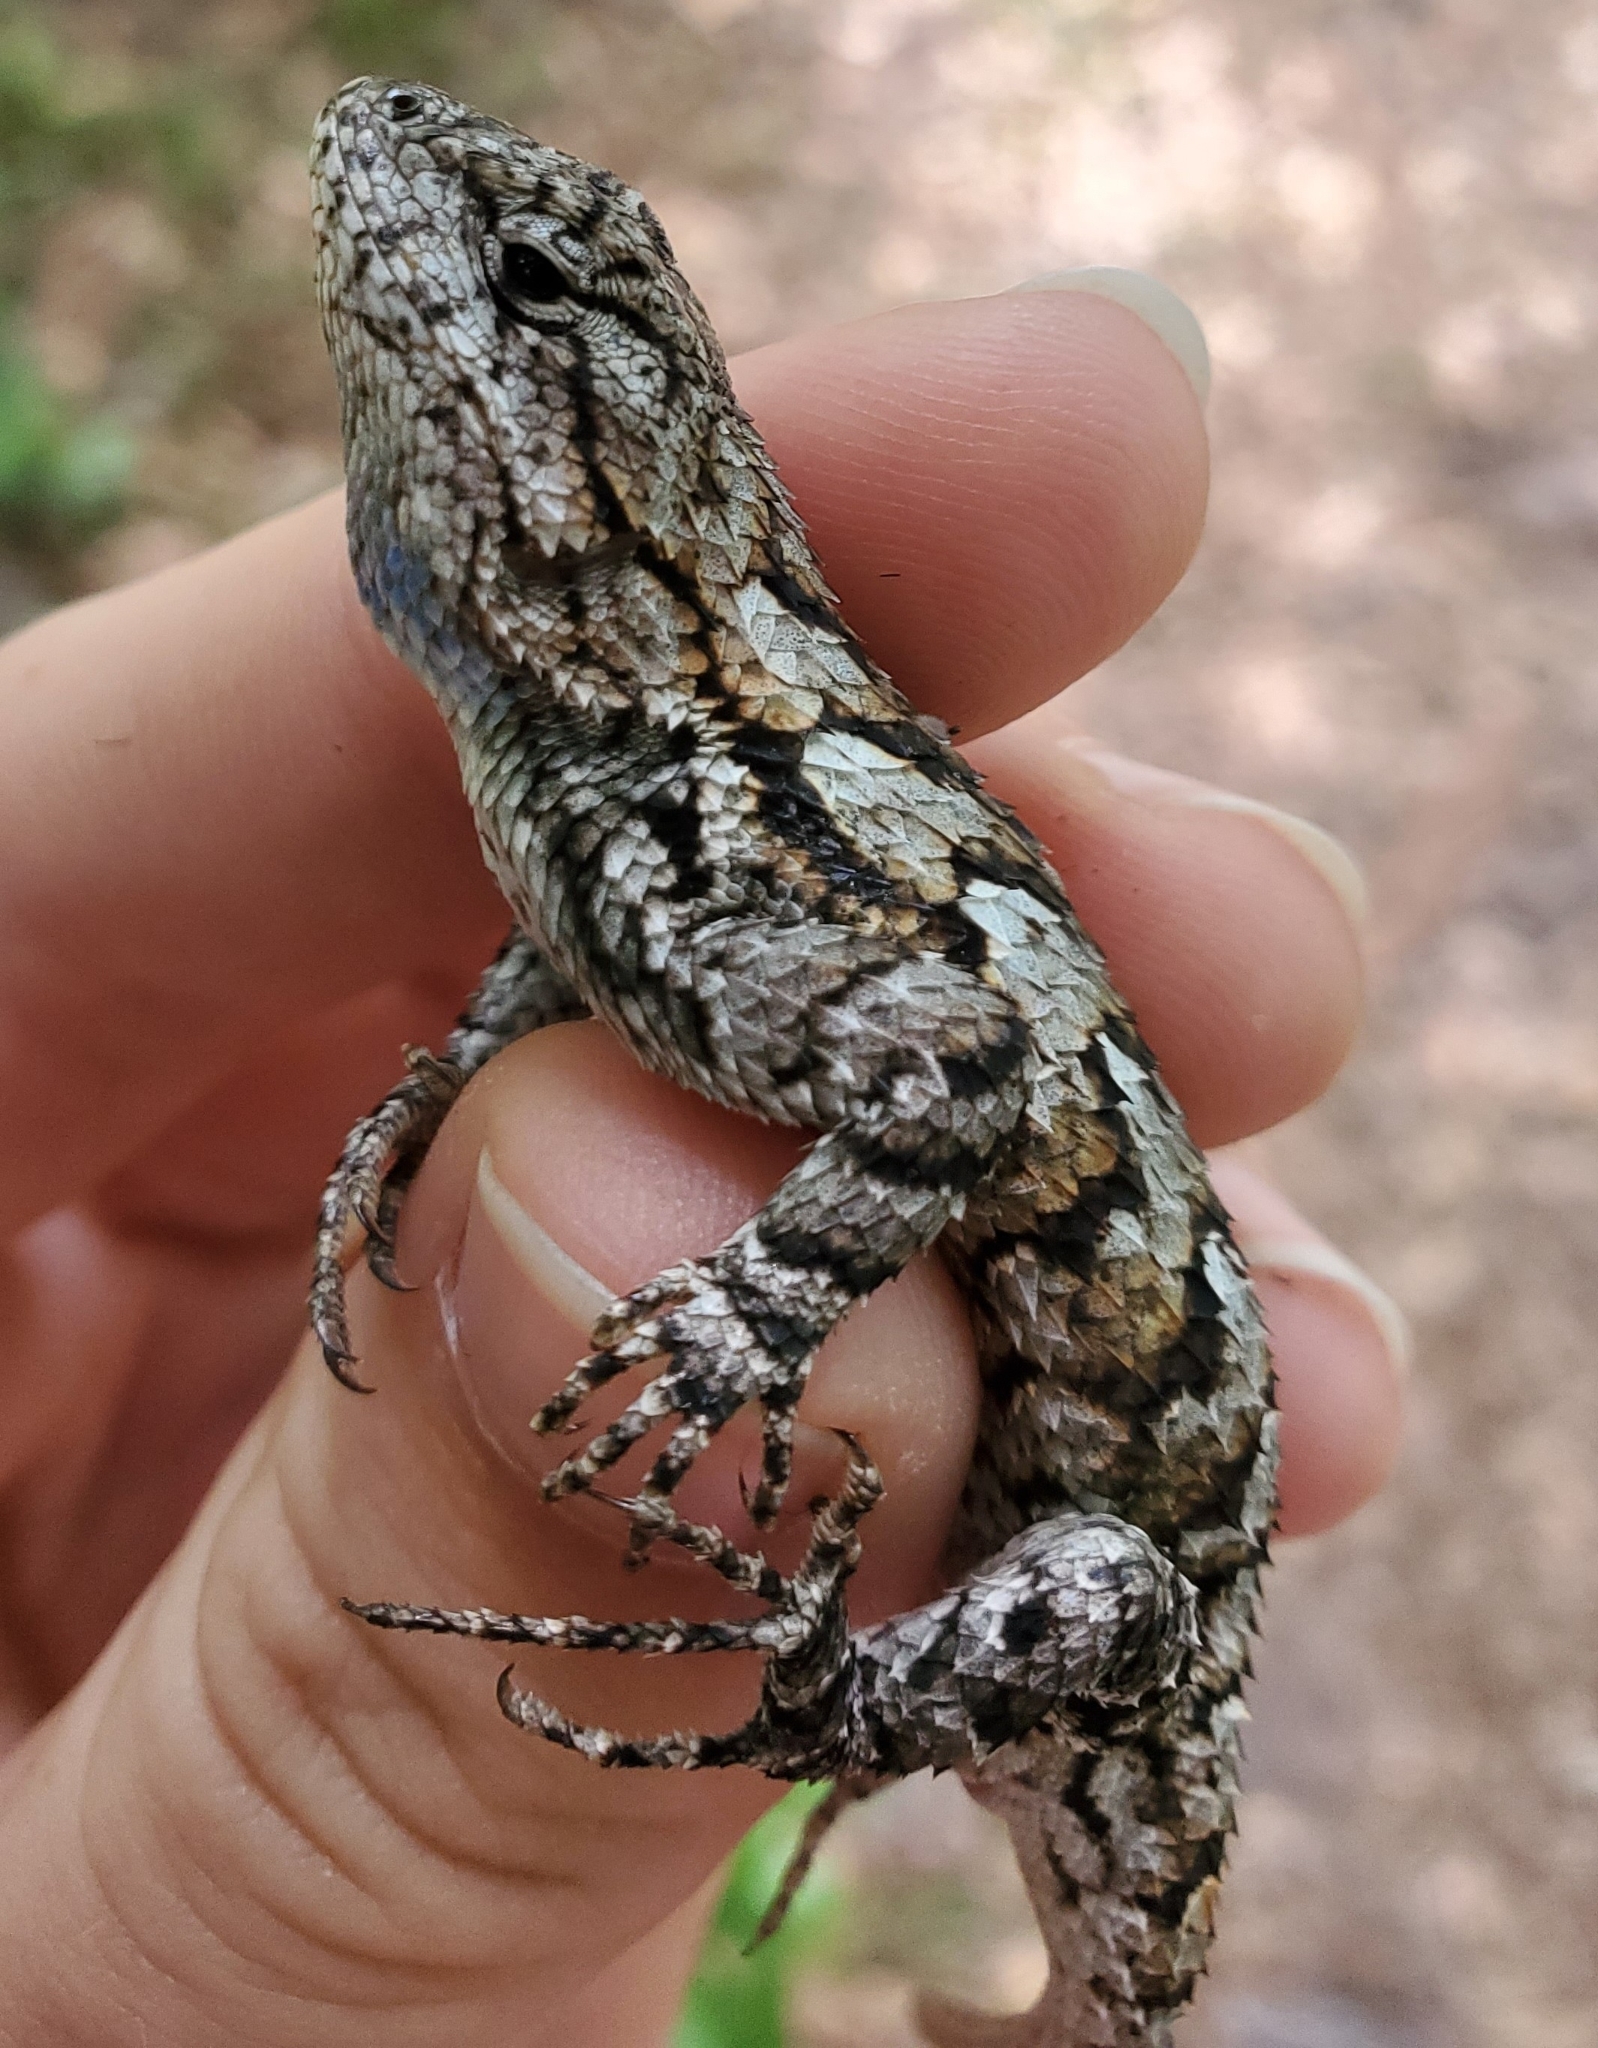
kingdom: Animalia
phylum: Chordata
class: Squamata
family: Phrynosomatidae
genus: Sceloporus
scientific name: Sceloporus undulatus
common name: Eastern fence lizard
